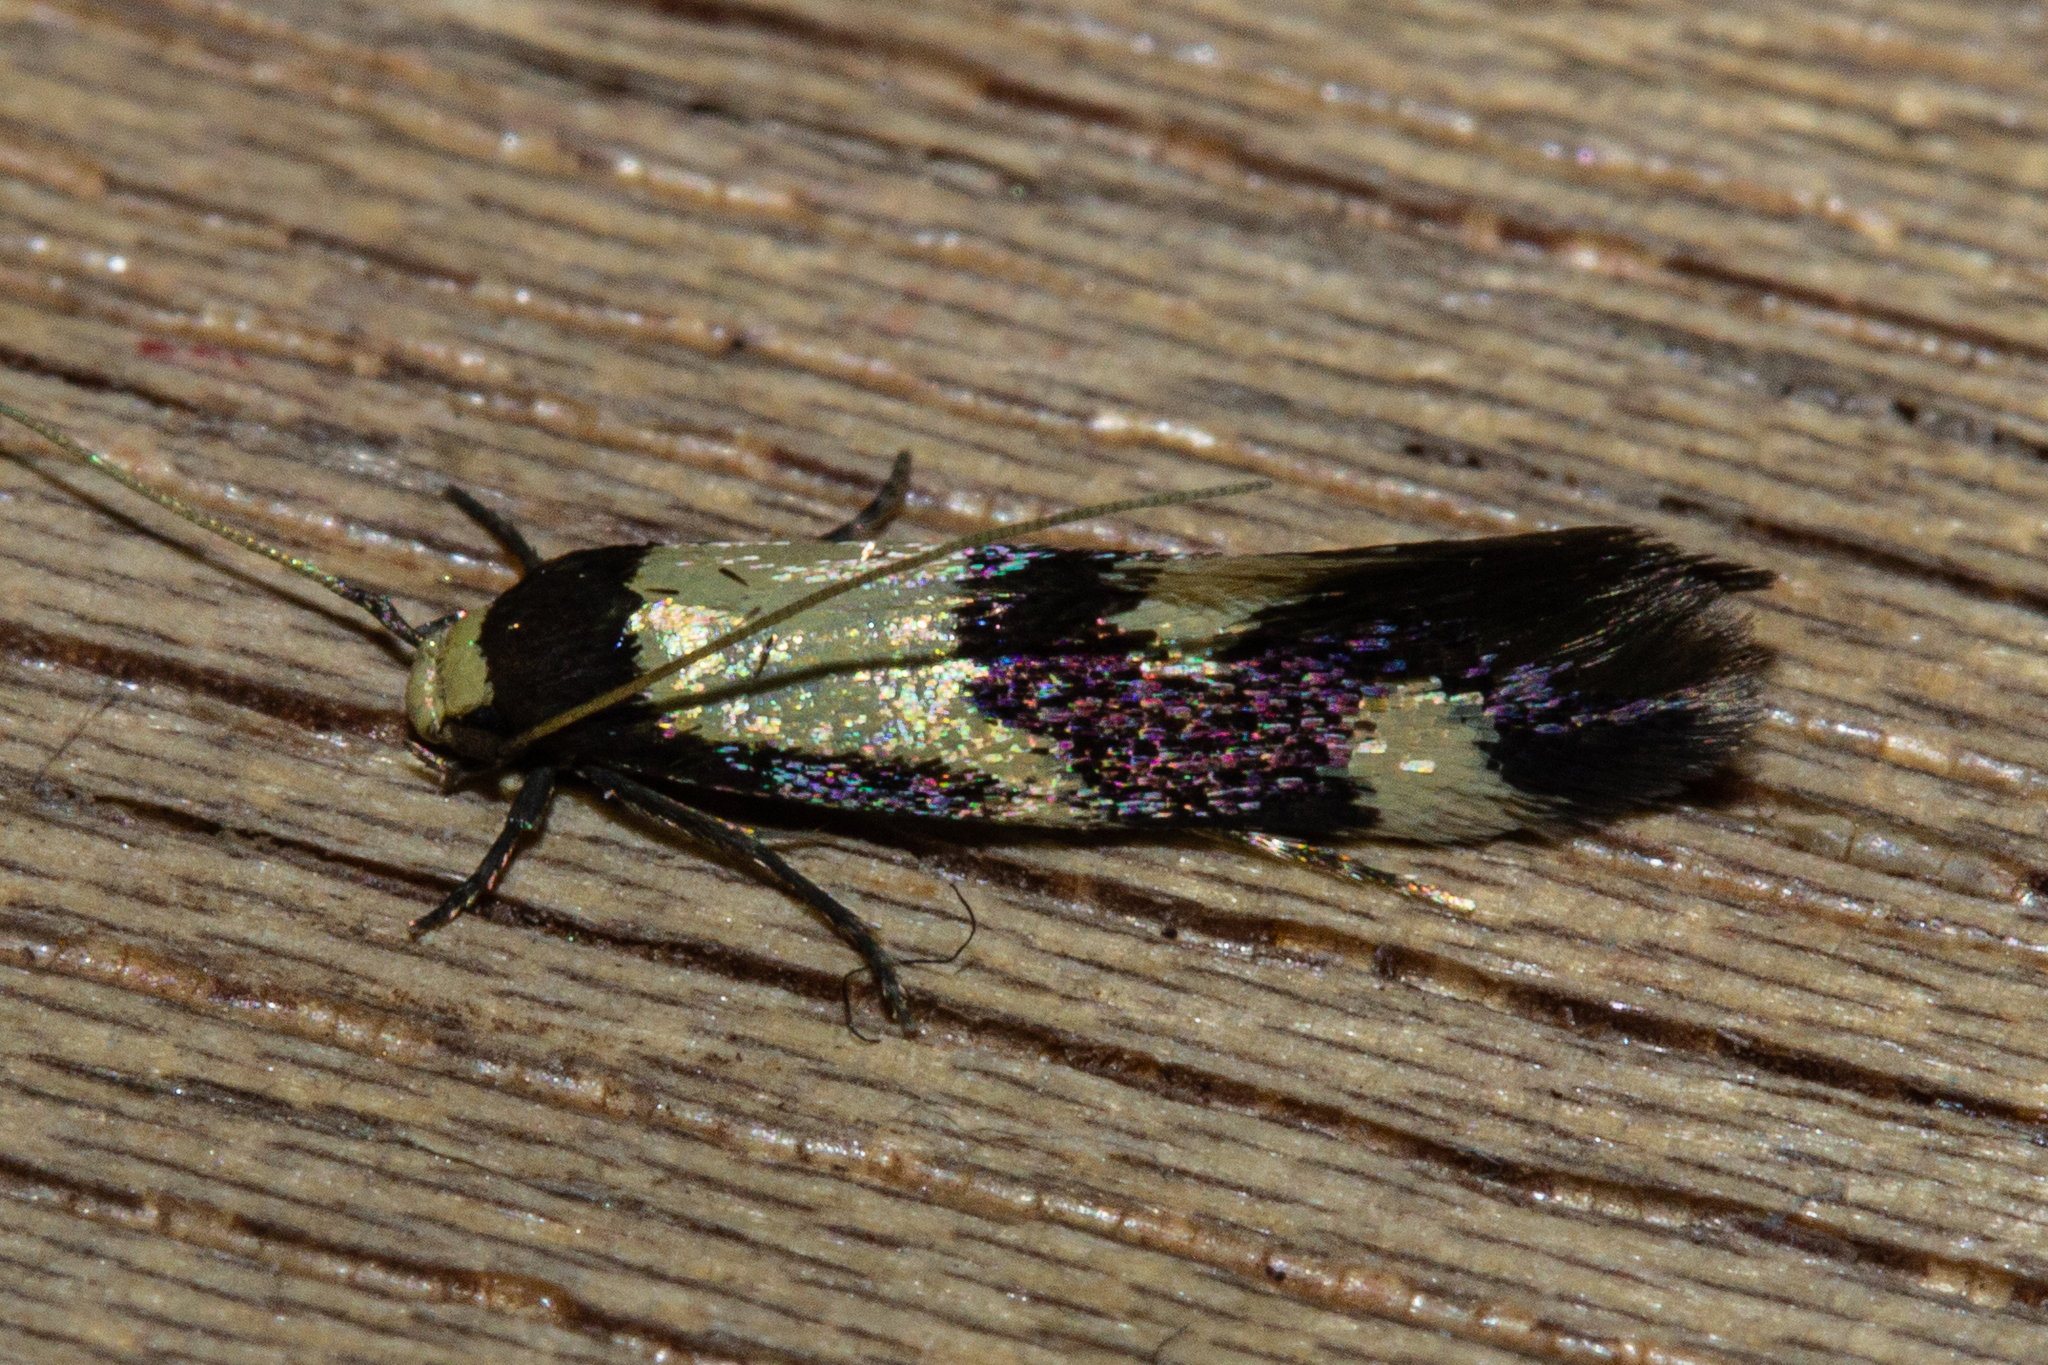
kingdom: Animalia
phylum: Arthropoda
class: Insecta
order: Lepidoptera
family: Tineidae
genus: Opogona
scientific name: Opogona comptella
